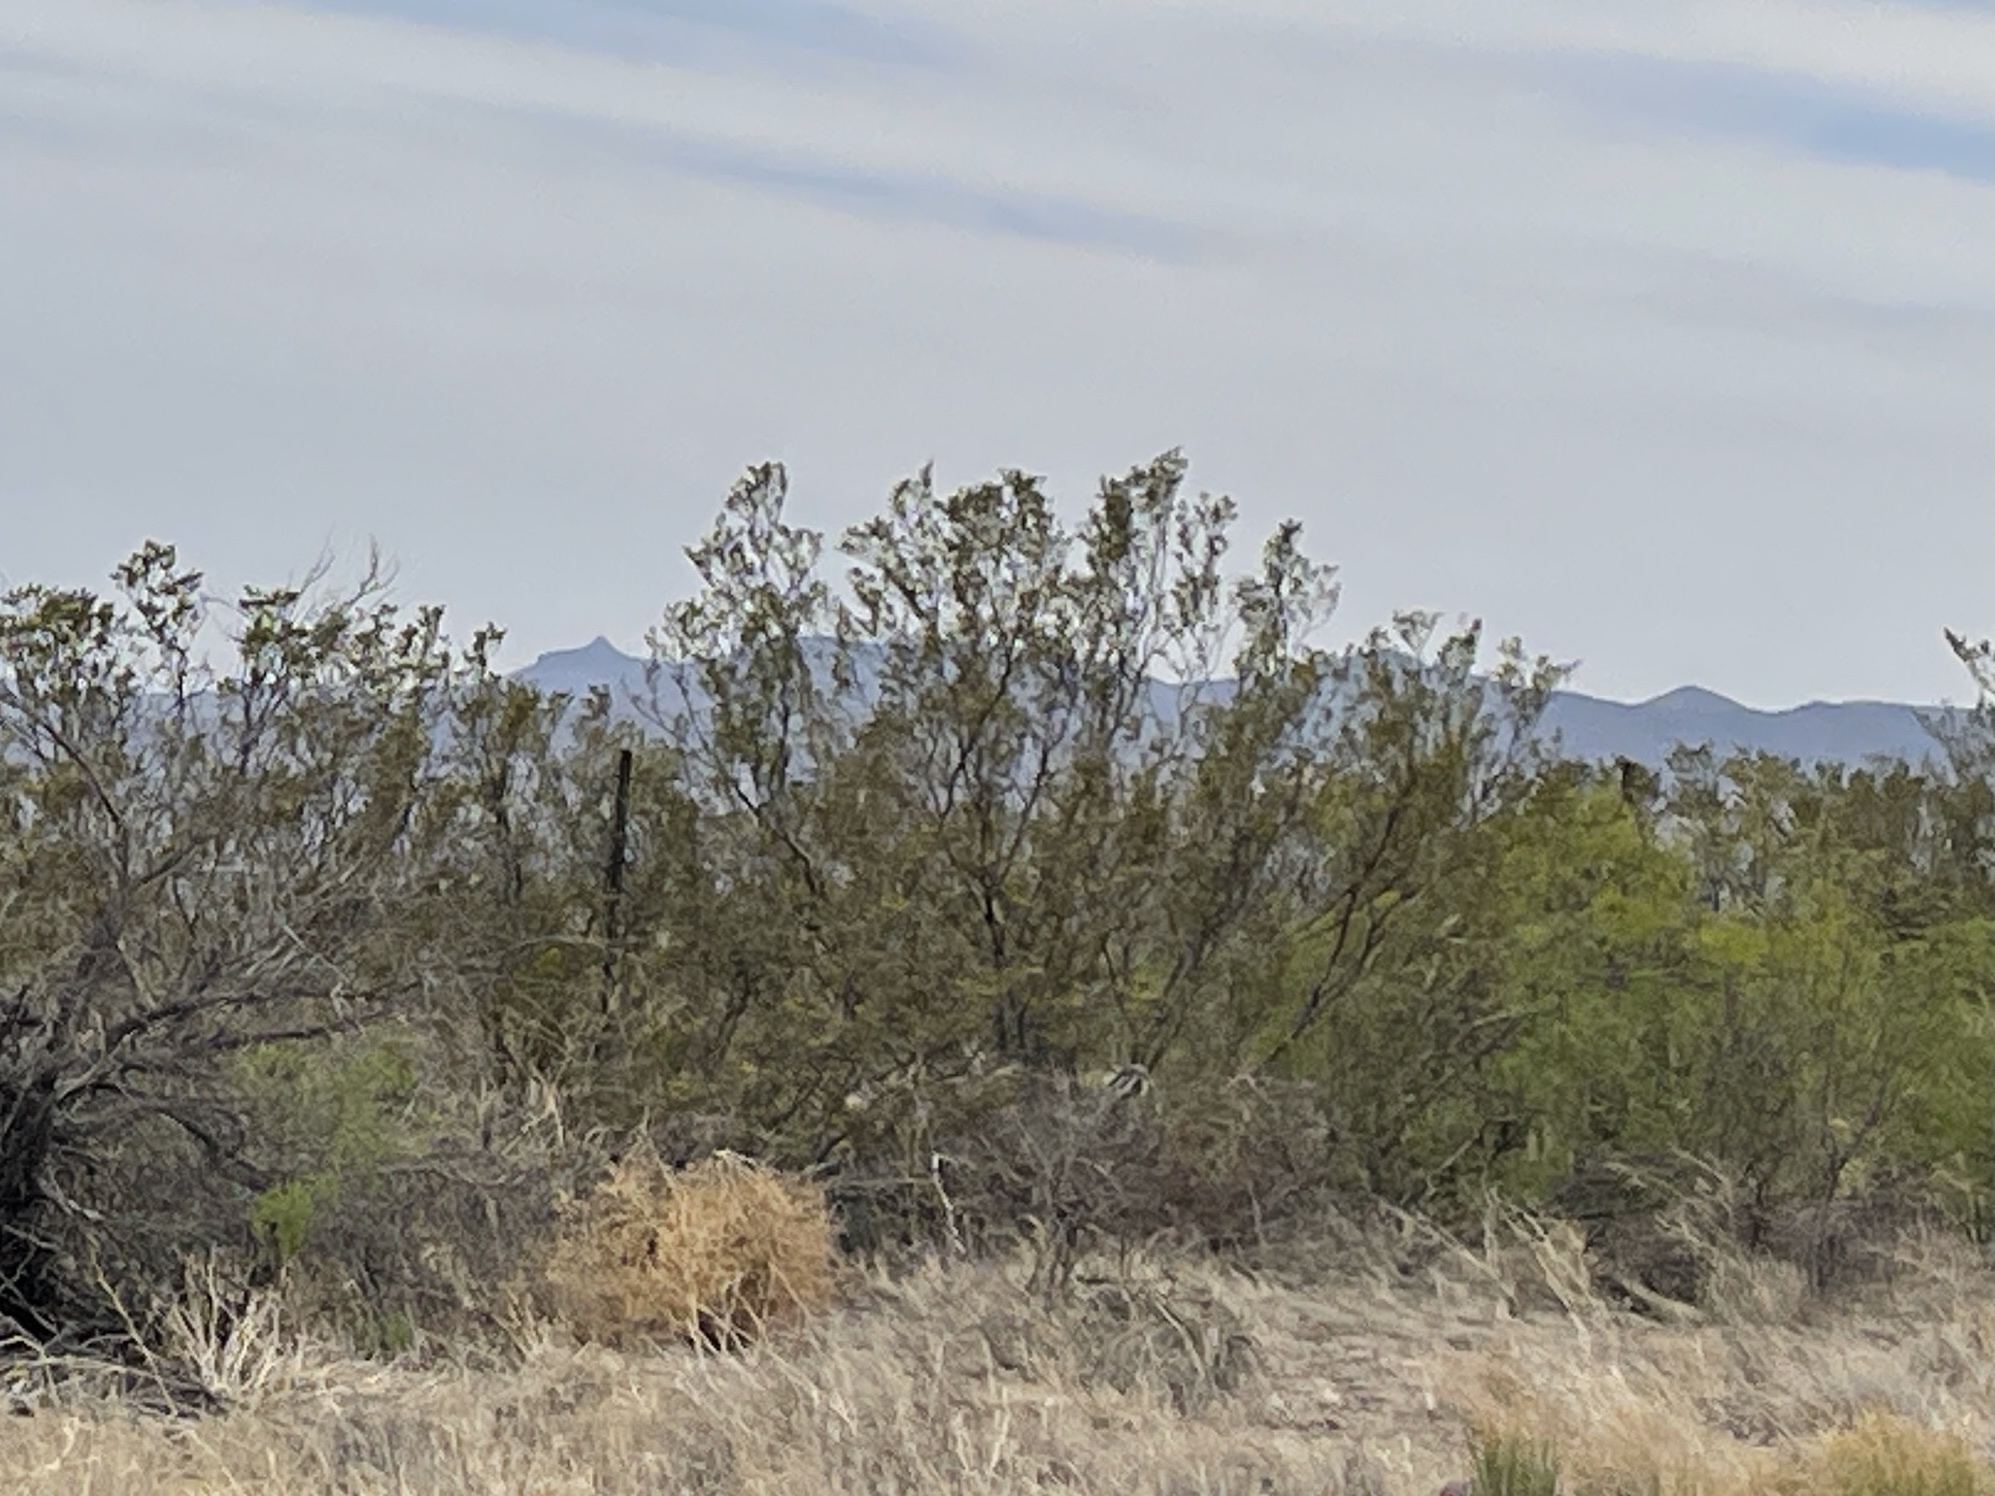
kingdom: Plantae
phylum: Tracheophyta
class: Magnoliopsida
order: Zygophyllales
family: Zygophyllaceae
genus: Larrea
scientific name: Larrea tridentata
